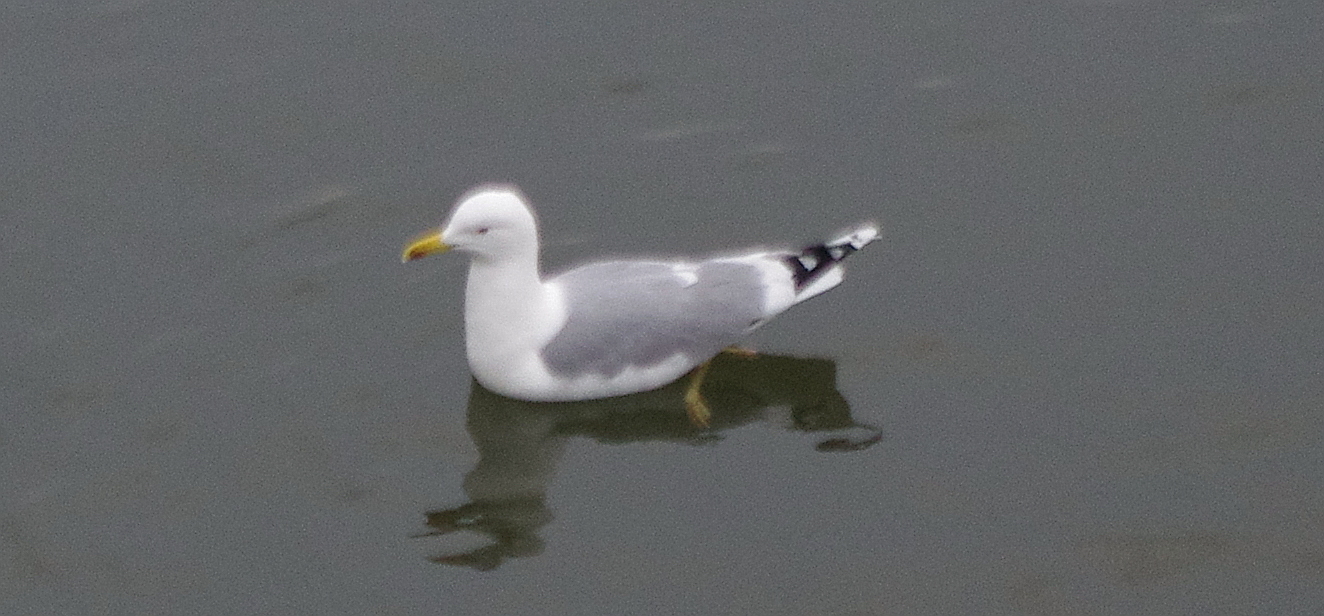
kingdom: Animalia
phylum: Chordata
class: Aves
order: Charadriiformes
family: Laridae
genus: Larus
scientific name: Larus argentatus
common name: Herring gull
